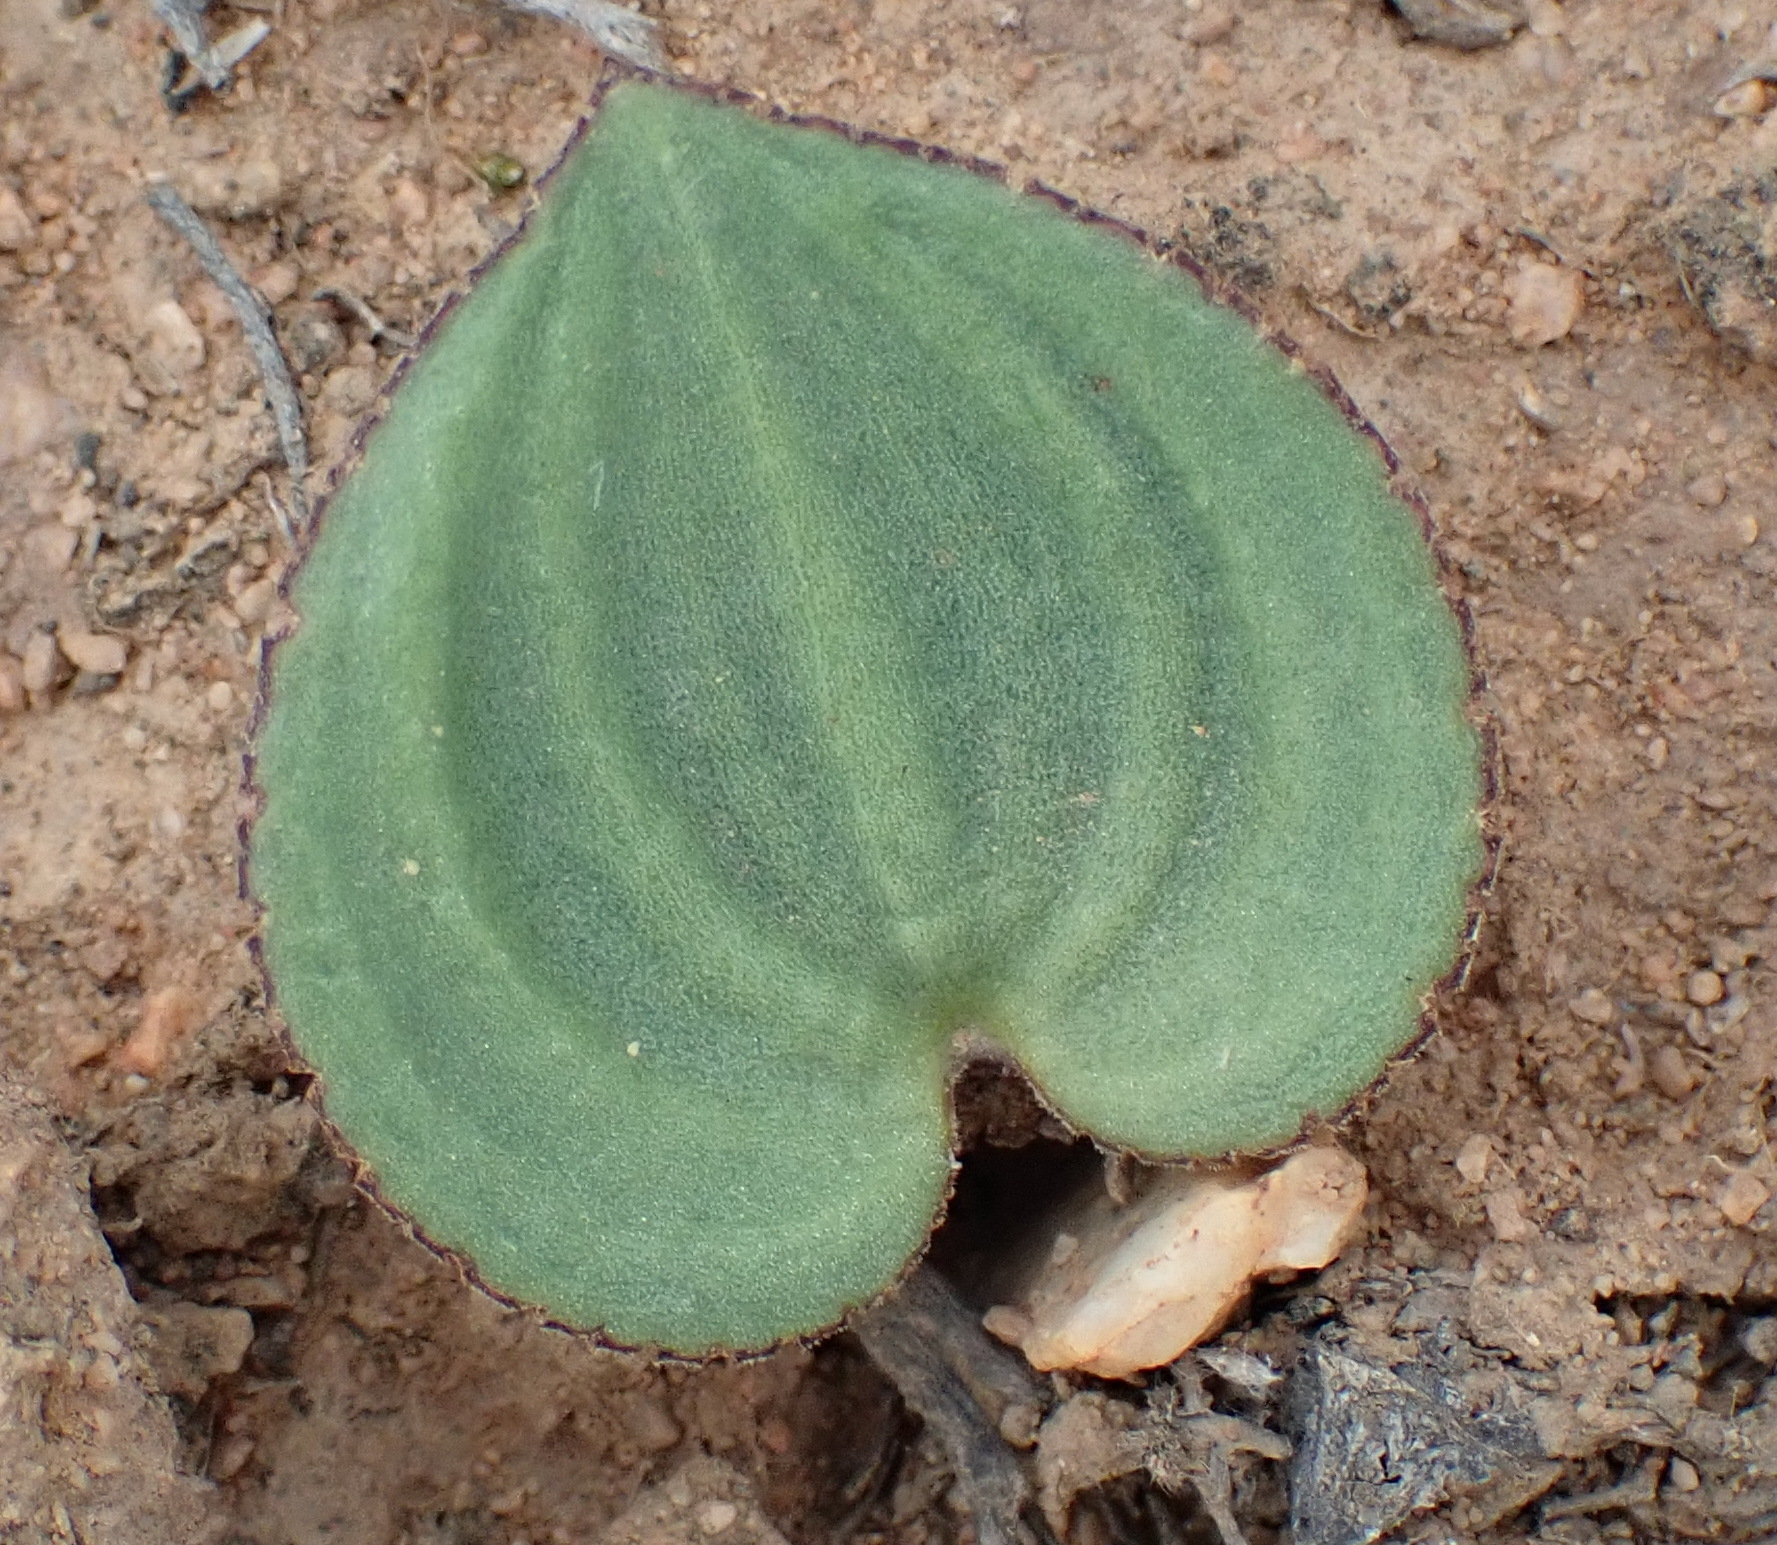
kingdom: Plantae
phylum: Tracheophyta
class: Liliopsida
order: Asparagales
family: Asparagaceae
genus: Eriospermum
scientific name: Eriospermum capense
